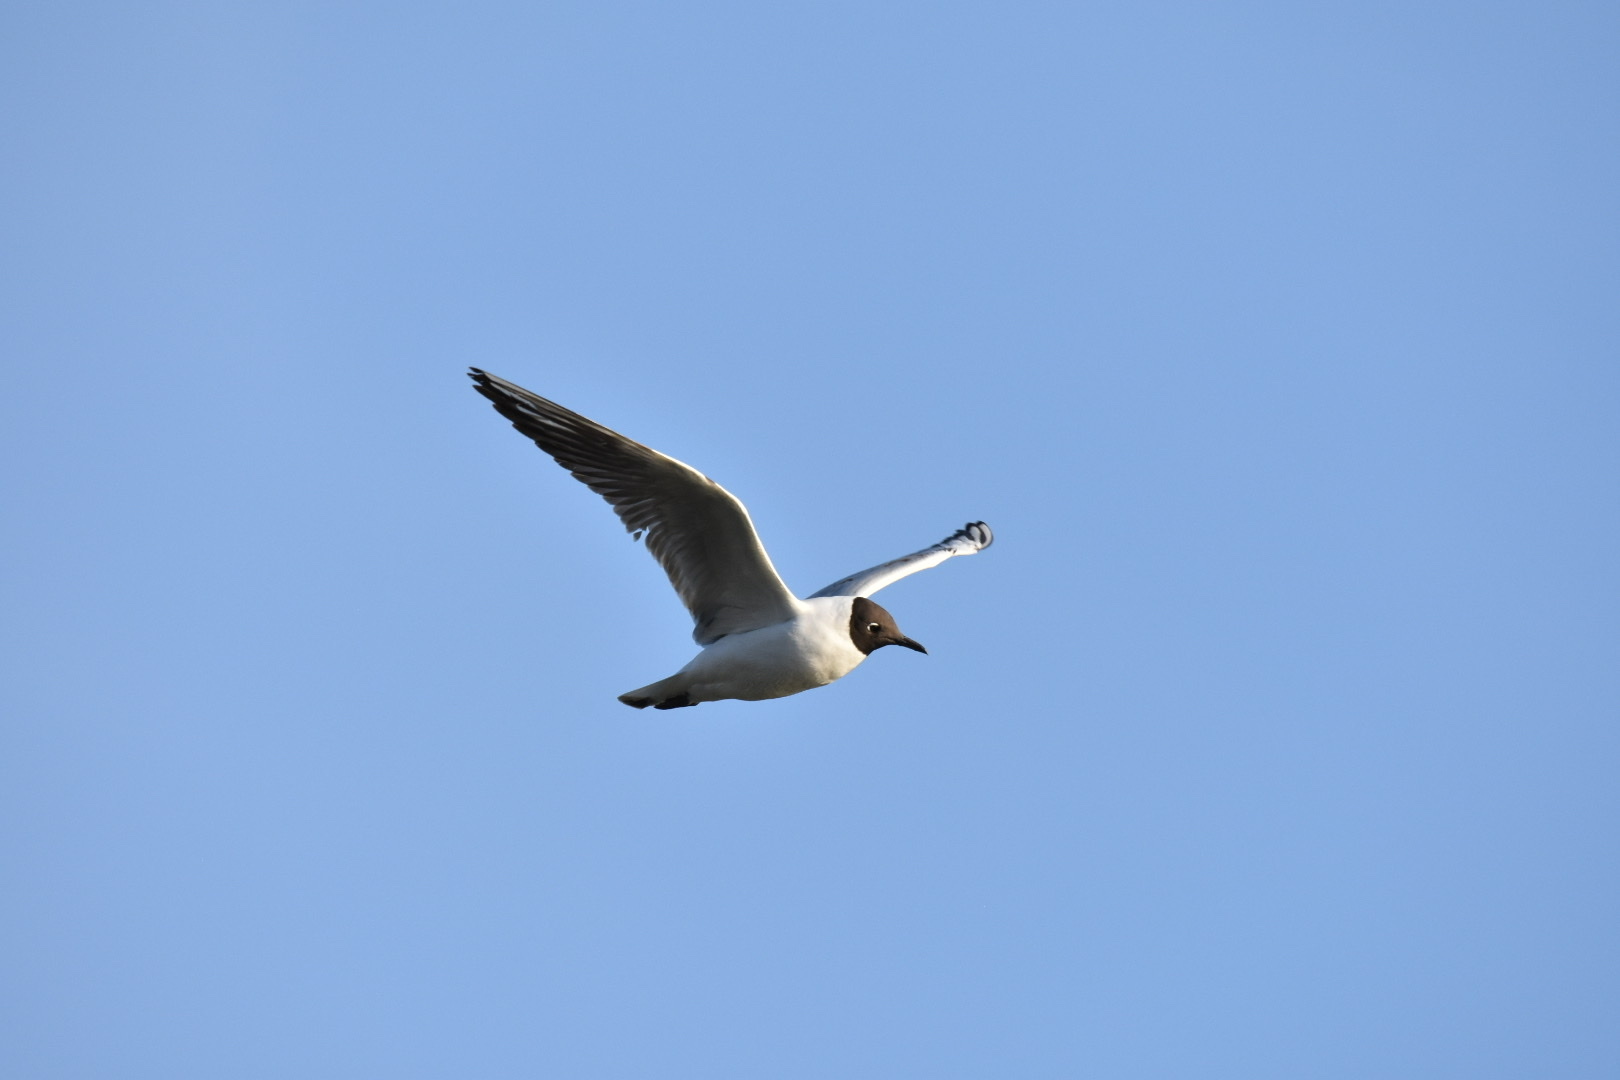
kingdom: Animalia
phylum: Chordata
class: Aves
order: Charadriiformes
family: Laridae
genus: Chroicocephalus
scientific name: Chroicocephalus ridibundus
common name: Black-headed gull
